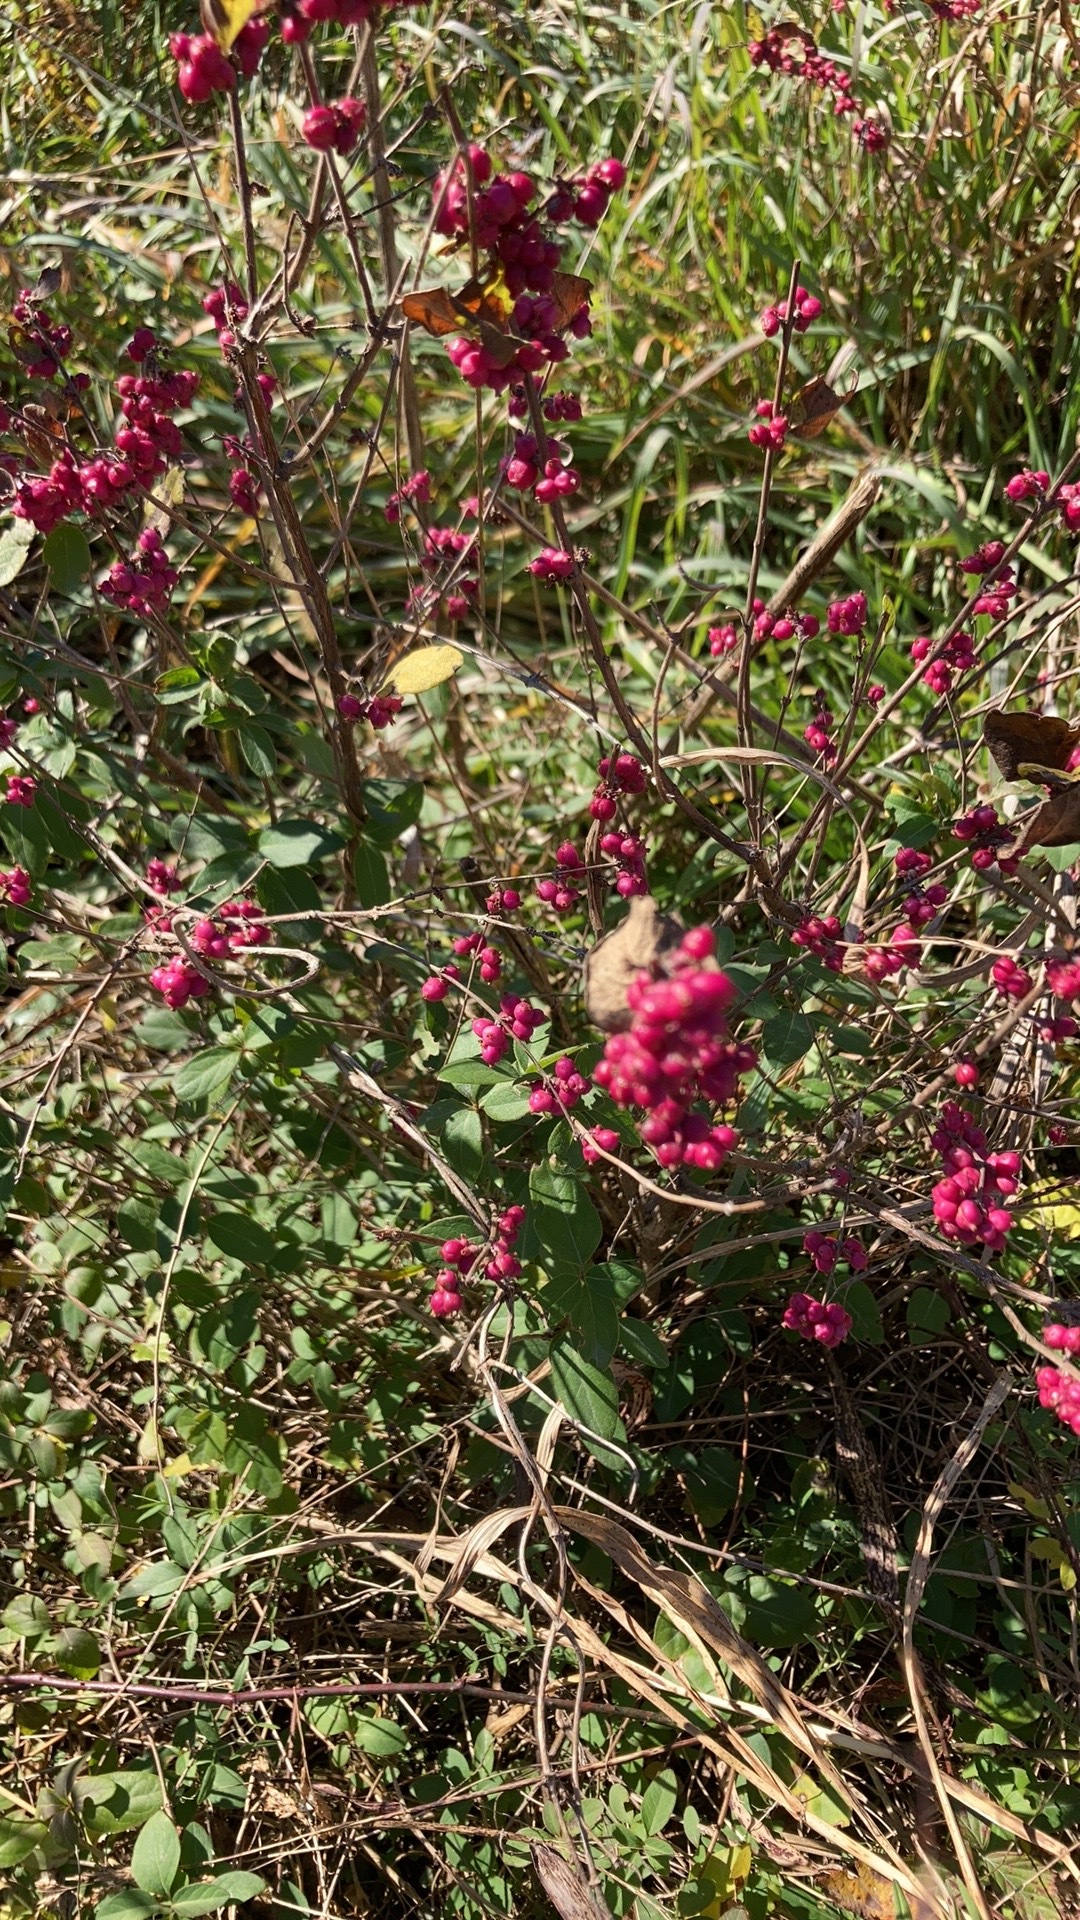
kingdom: Plantae
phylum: Tracheophyta
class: Magnoliopsida
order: Dipsacales
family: Caprifoliaceae
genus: Symphoricarpos
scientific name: Symphoricarpos orbiculatus
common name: Coralberry
